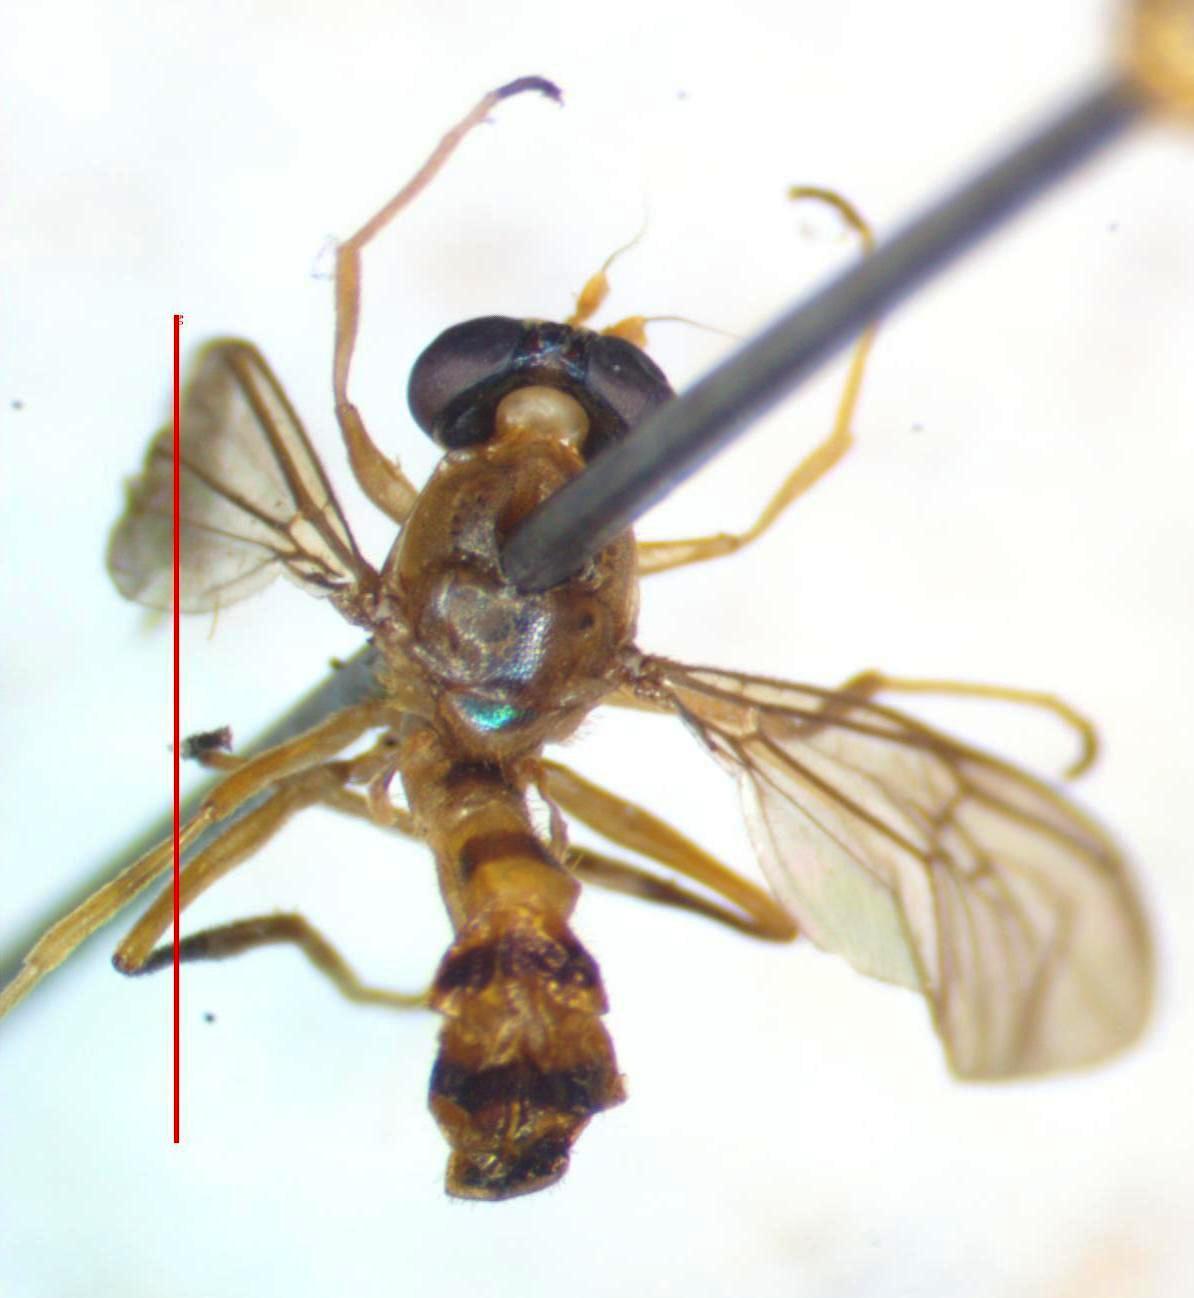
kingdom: Animalia
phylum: Arthropoda
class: Insecta
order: Diptera
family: Stratiomyidae
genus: Merosargus
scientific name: Merosargus akrei
